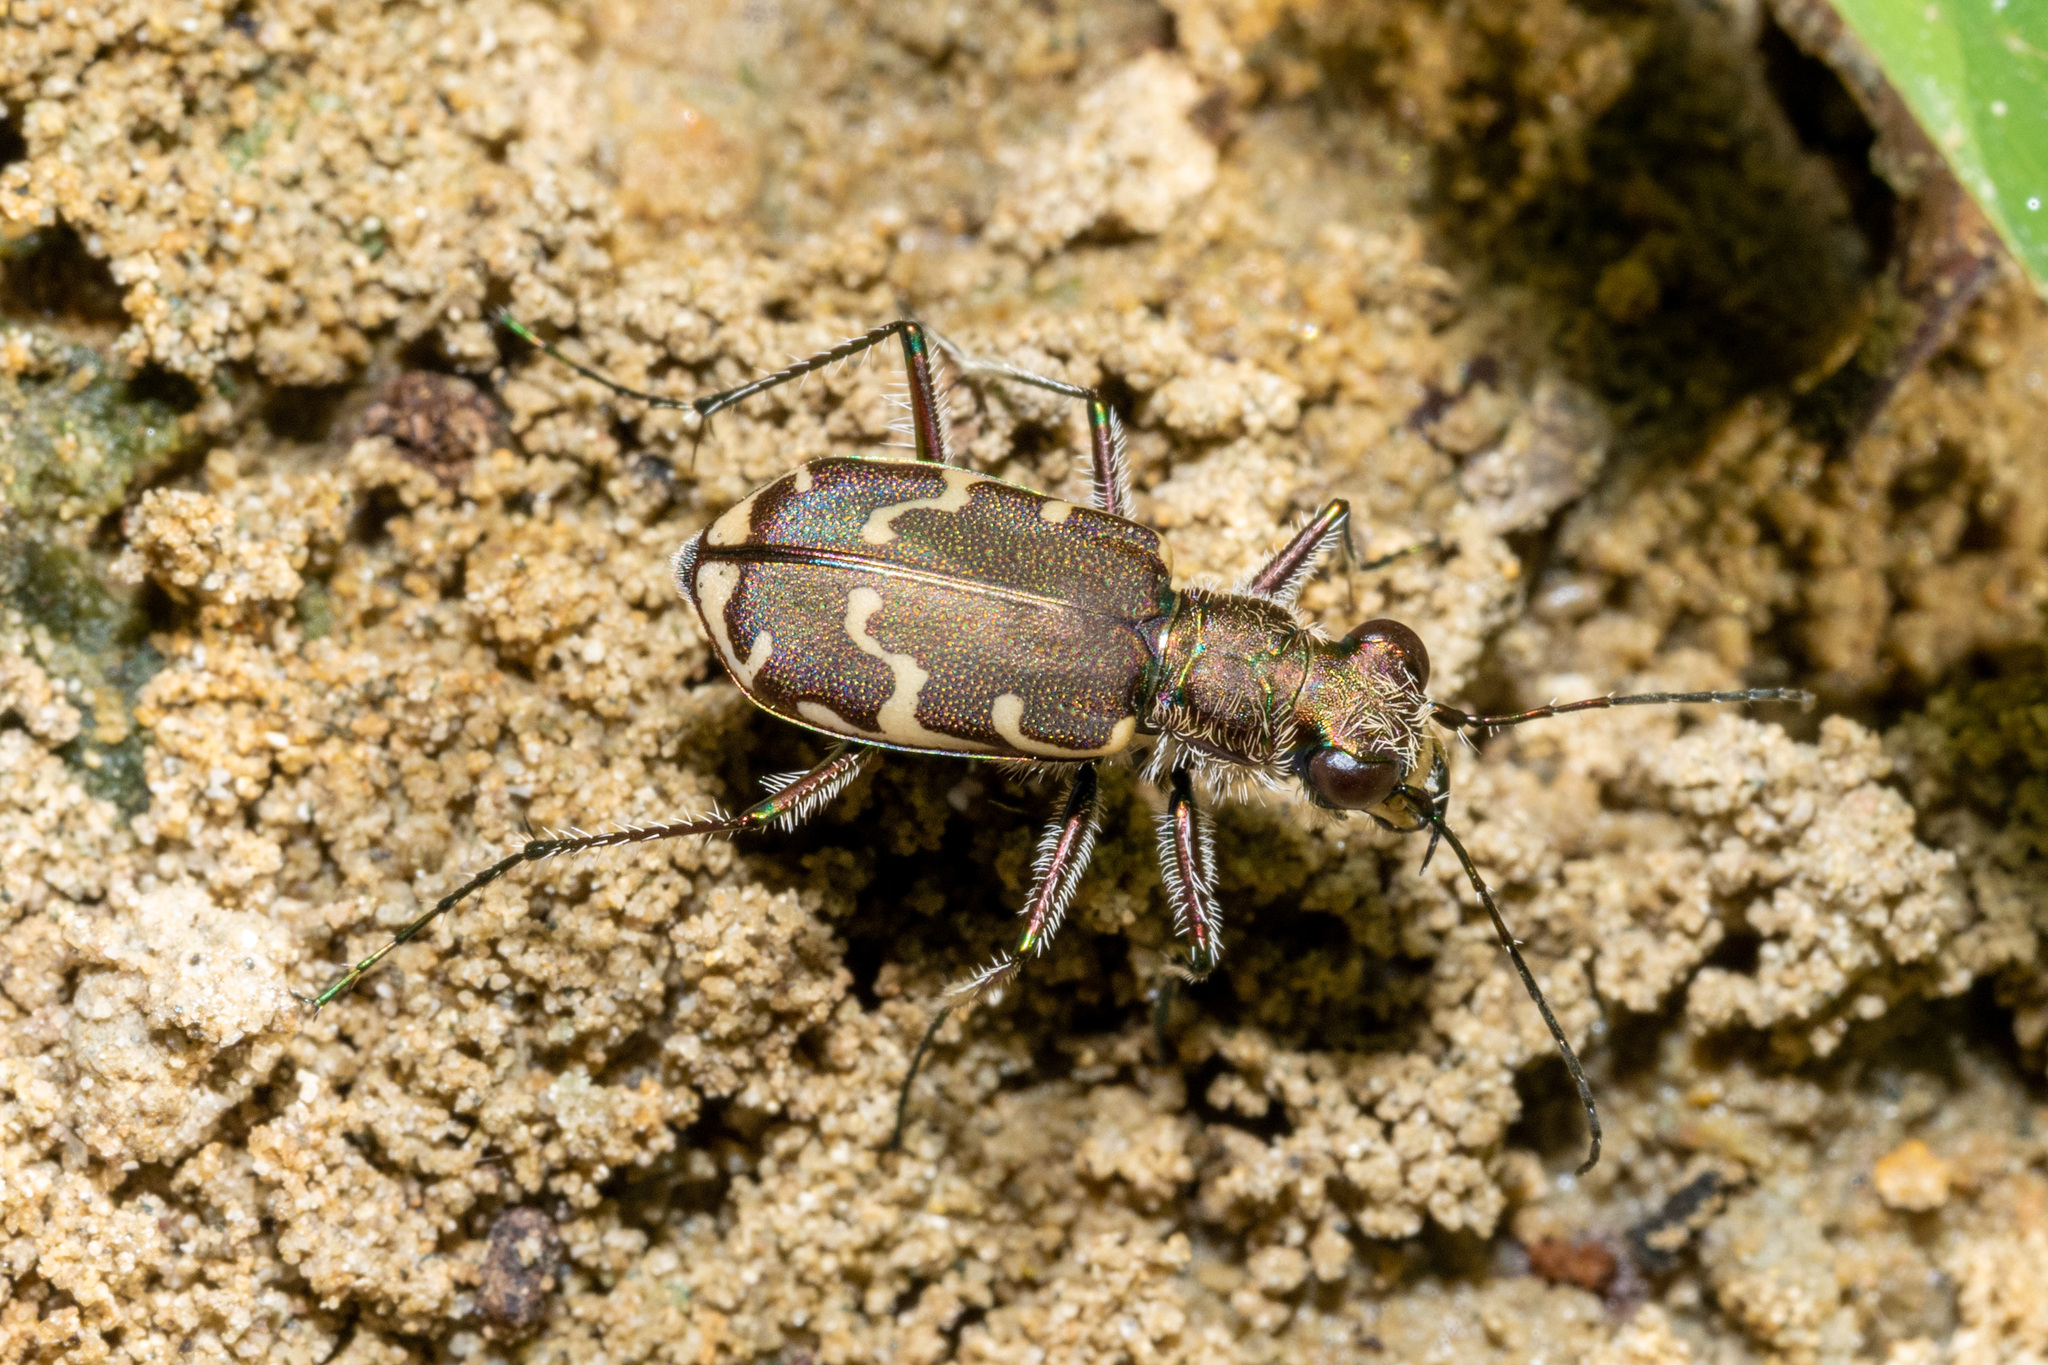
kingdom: Animalia
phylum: Arthropoda
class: Insecta
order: Coleoptera
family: Carabidae
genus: Cicindela
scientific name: Cicindela repanda
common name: Bronzed tiger beetle
